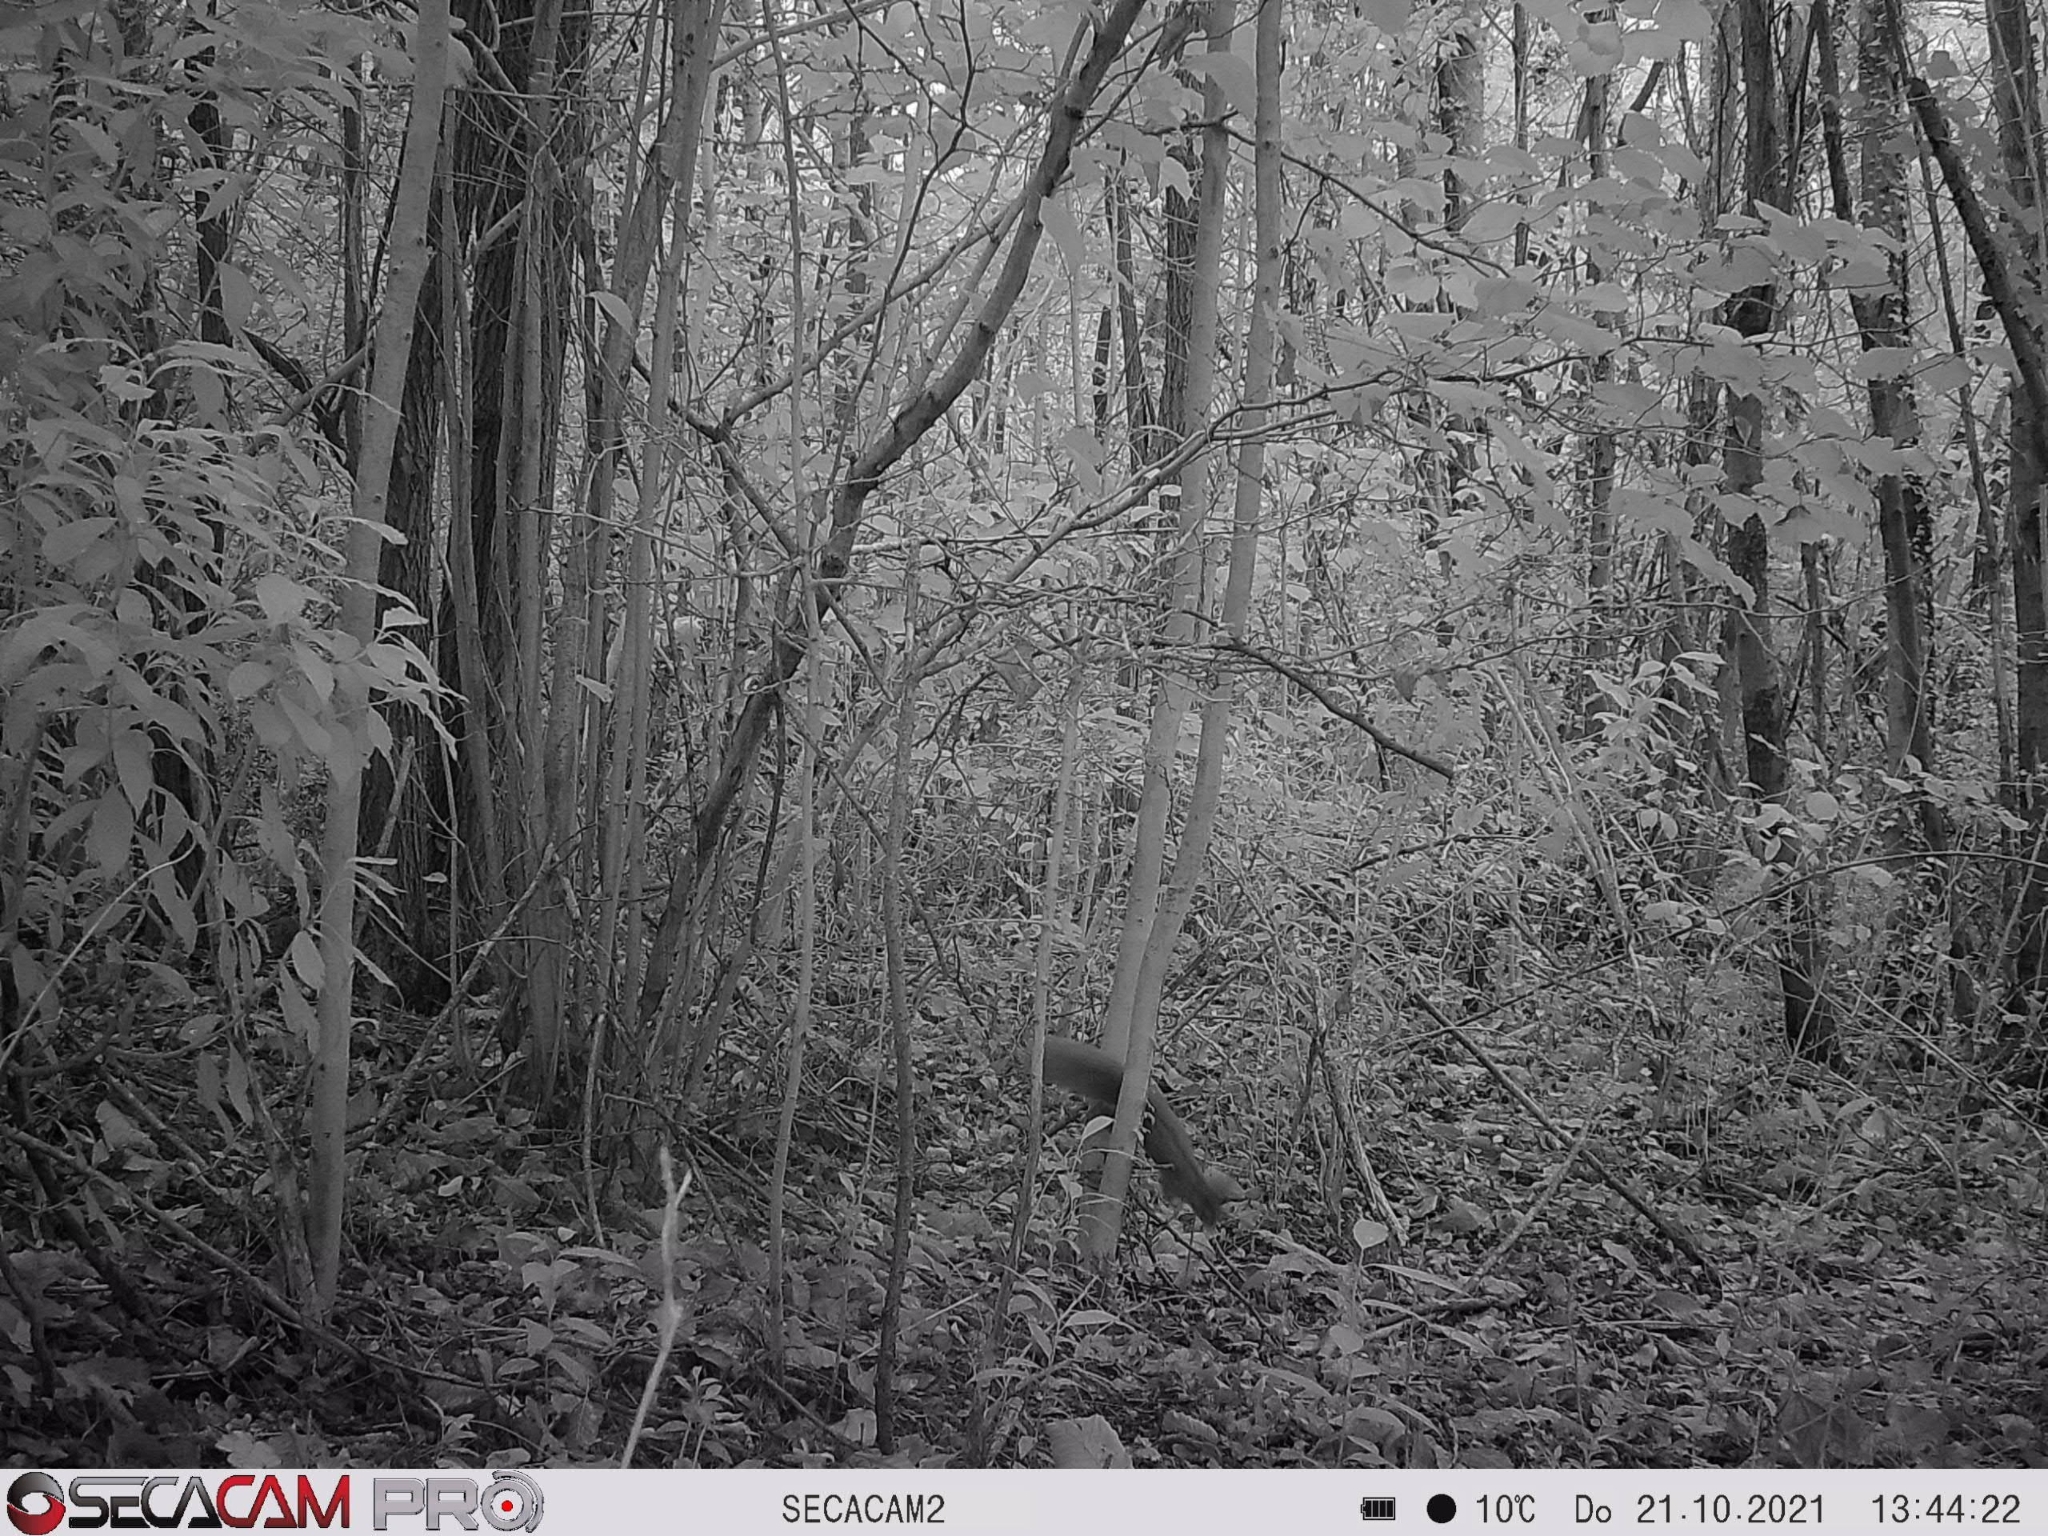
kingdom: Animalia
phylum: Chordata
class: Mammalia
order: Rodentia
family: Sciuridae
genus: Sciurus
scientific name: Sciurus vulgaris
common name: Eurasian red squirrel
